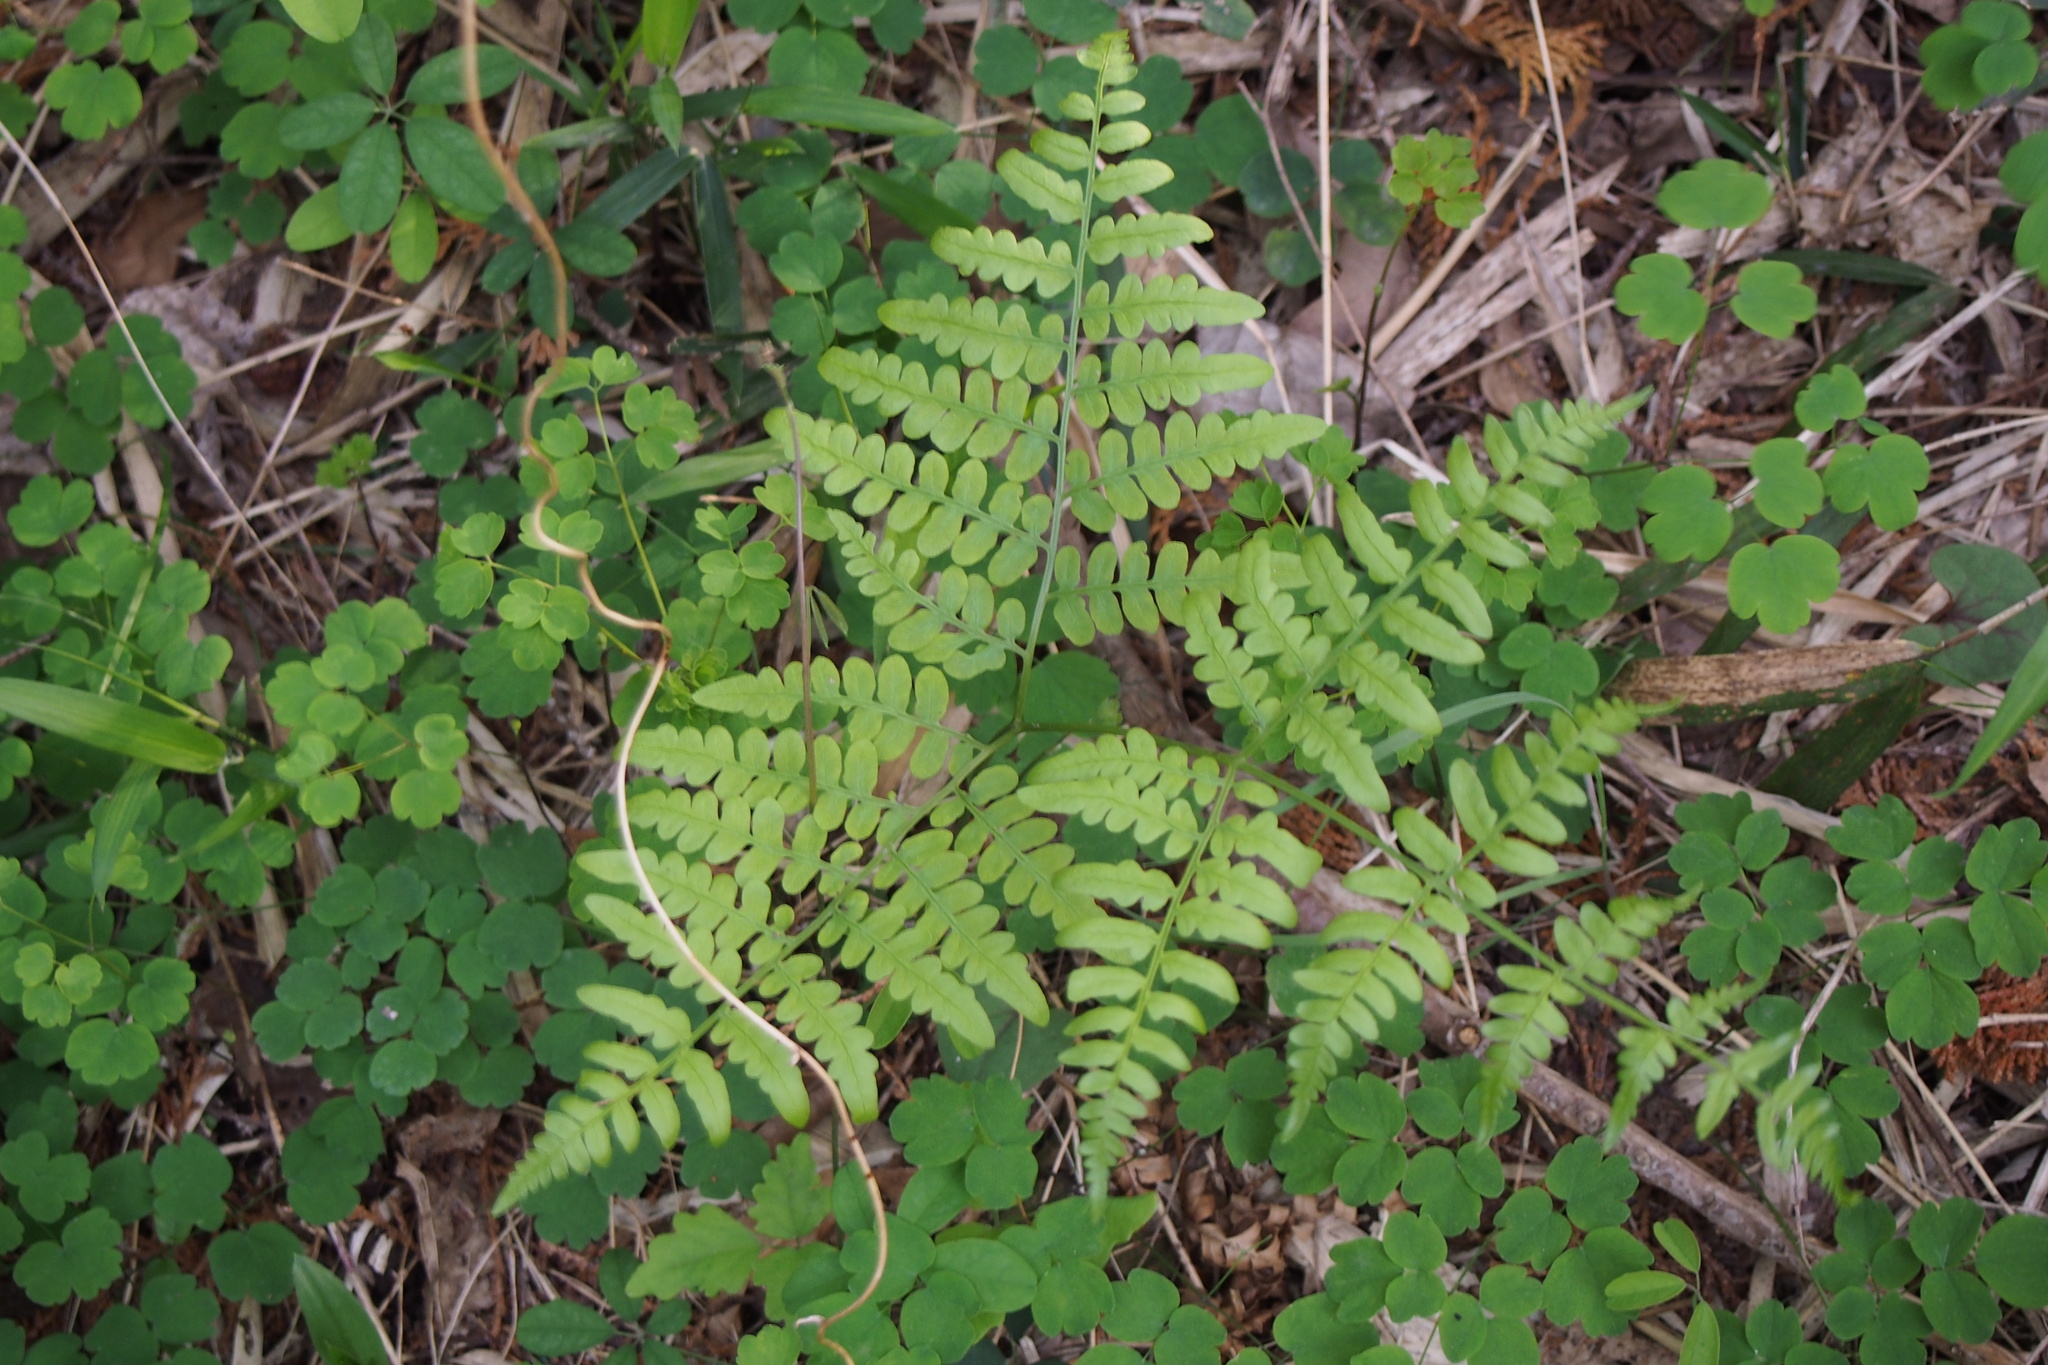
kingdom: Plantae
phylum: Tracheophyta
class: Polypodiopsida
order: Polypodiales
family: Dennstaedtiaceae
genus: Pteridium
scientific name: Pteridium aquilinum
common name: Bracken
